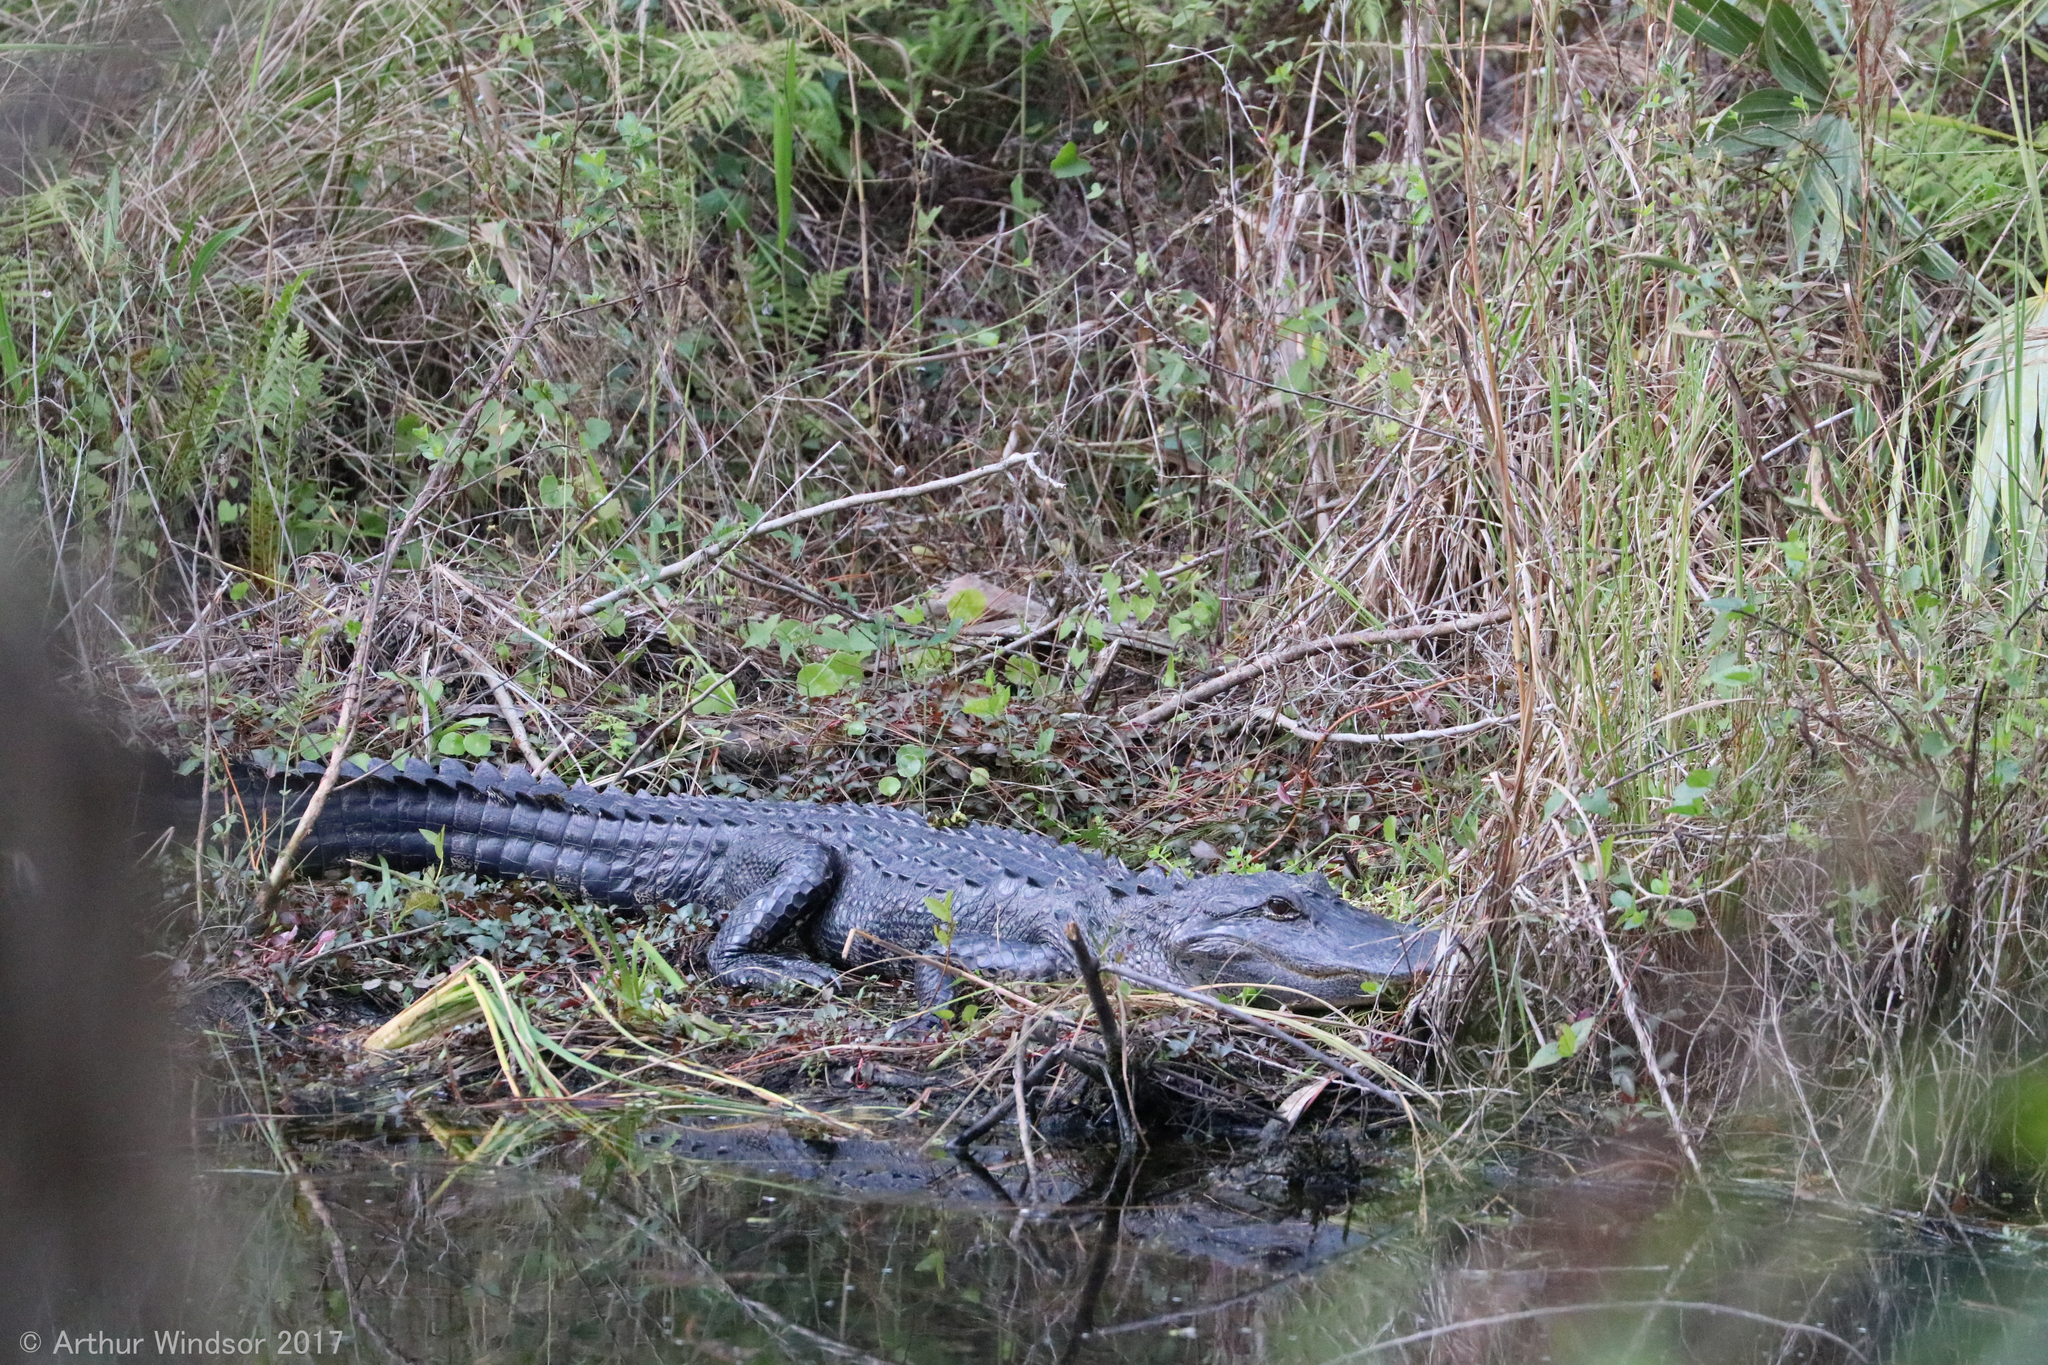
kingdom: Animalia
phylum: Chordata
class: Crocodylia
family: Alligatoridae
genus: Alligator
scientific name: Alligator mississippiensis
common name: American alligator
